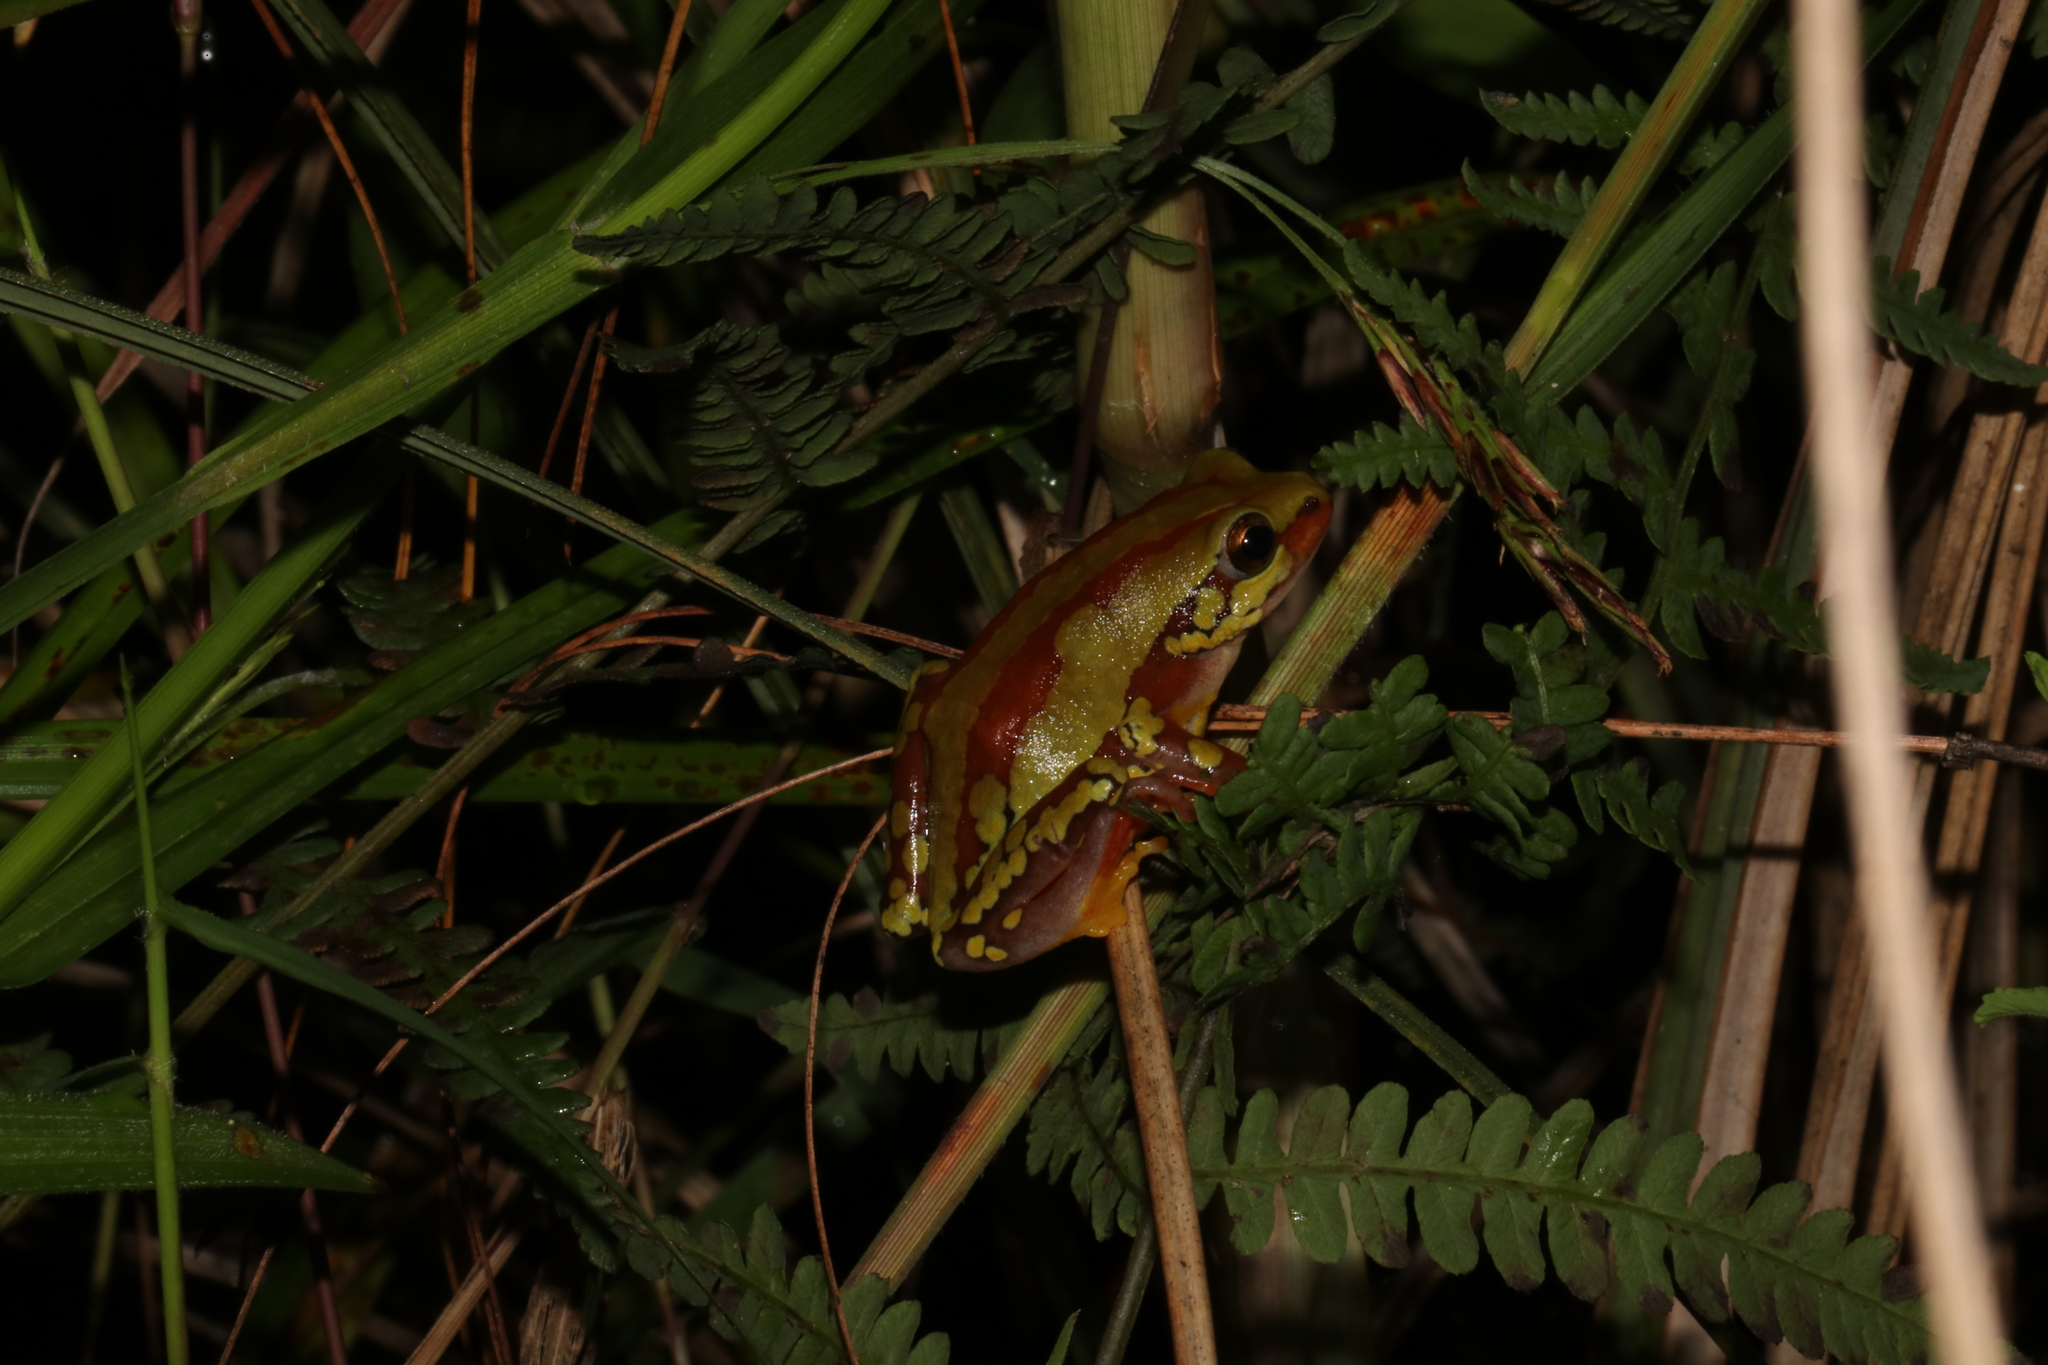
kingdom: Animalia
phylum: Chordata
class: Amphibia
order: Anura
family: Hyperoliidae
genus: Hyperolius
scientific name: Hyperolius pictus
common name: Variable reed frog
